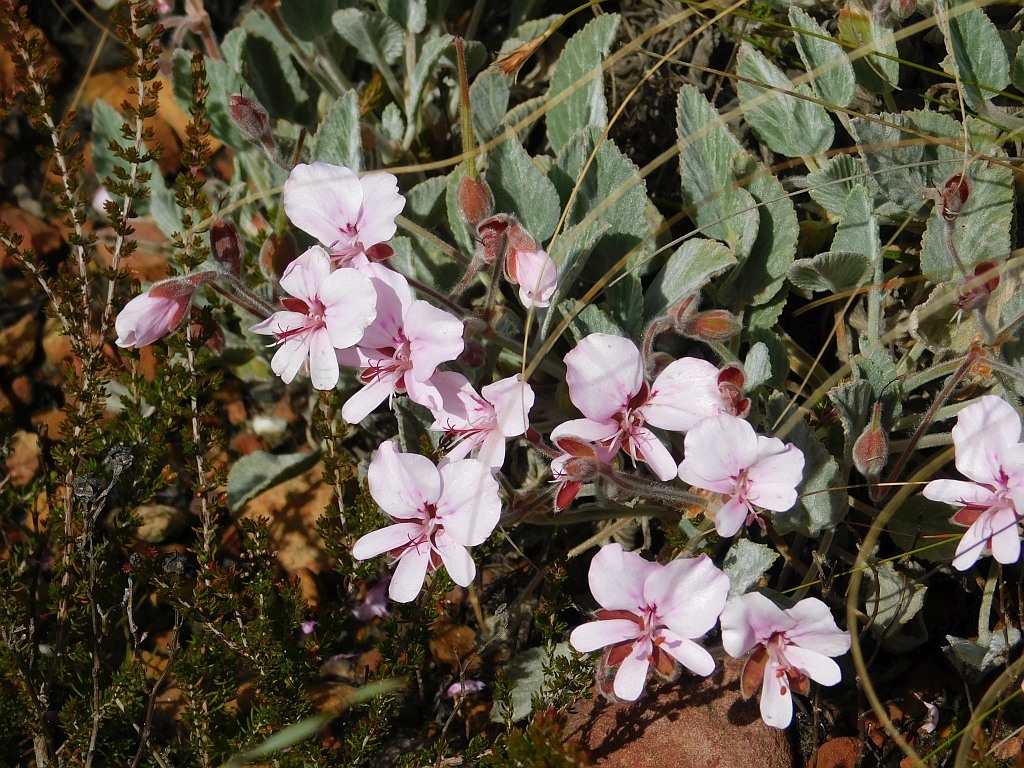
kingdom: Plantae
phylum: Tracheophyta
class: Magnoliopsida
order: Geraniales
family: Geraniaceae
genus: Pelargonium
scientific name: Pelargonium ovale
